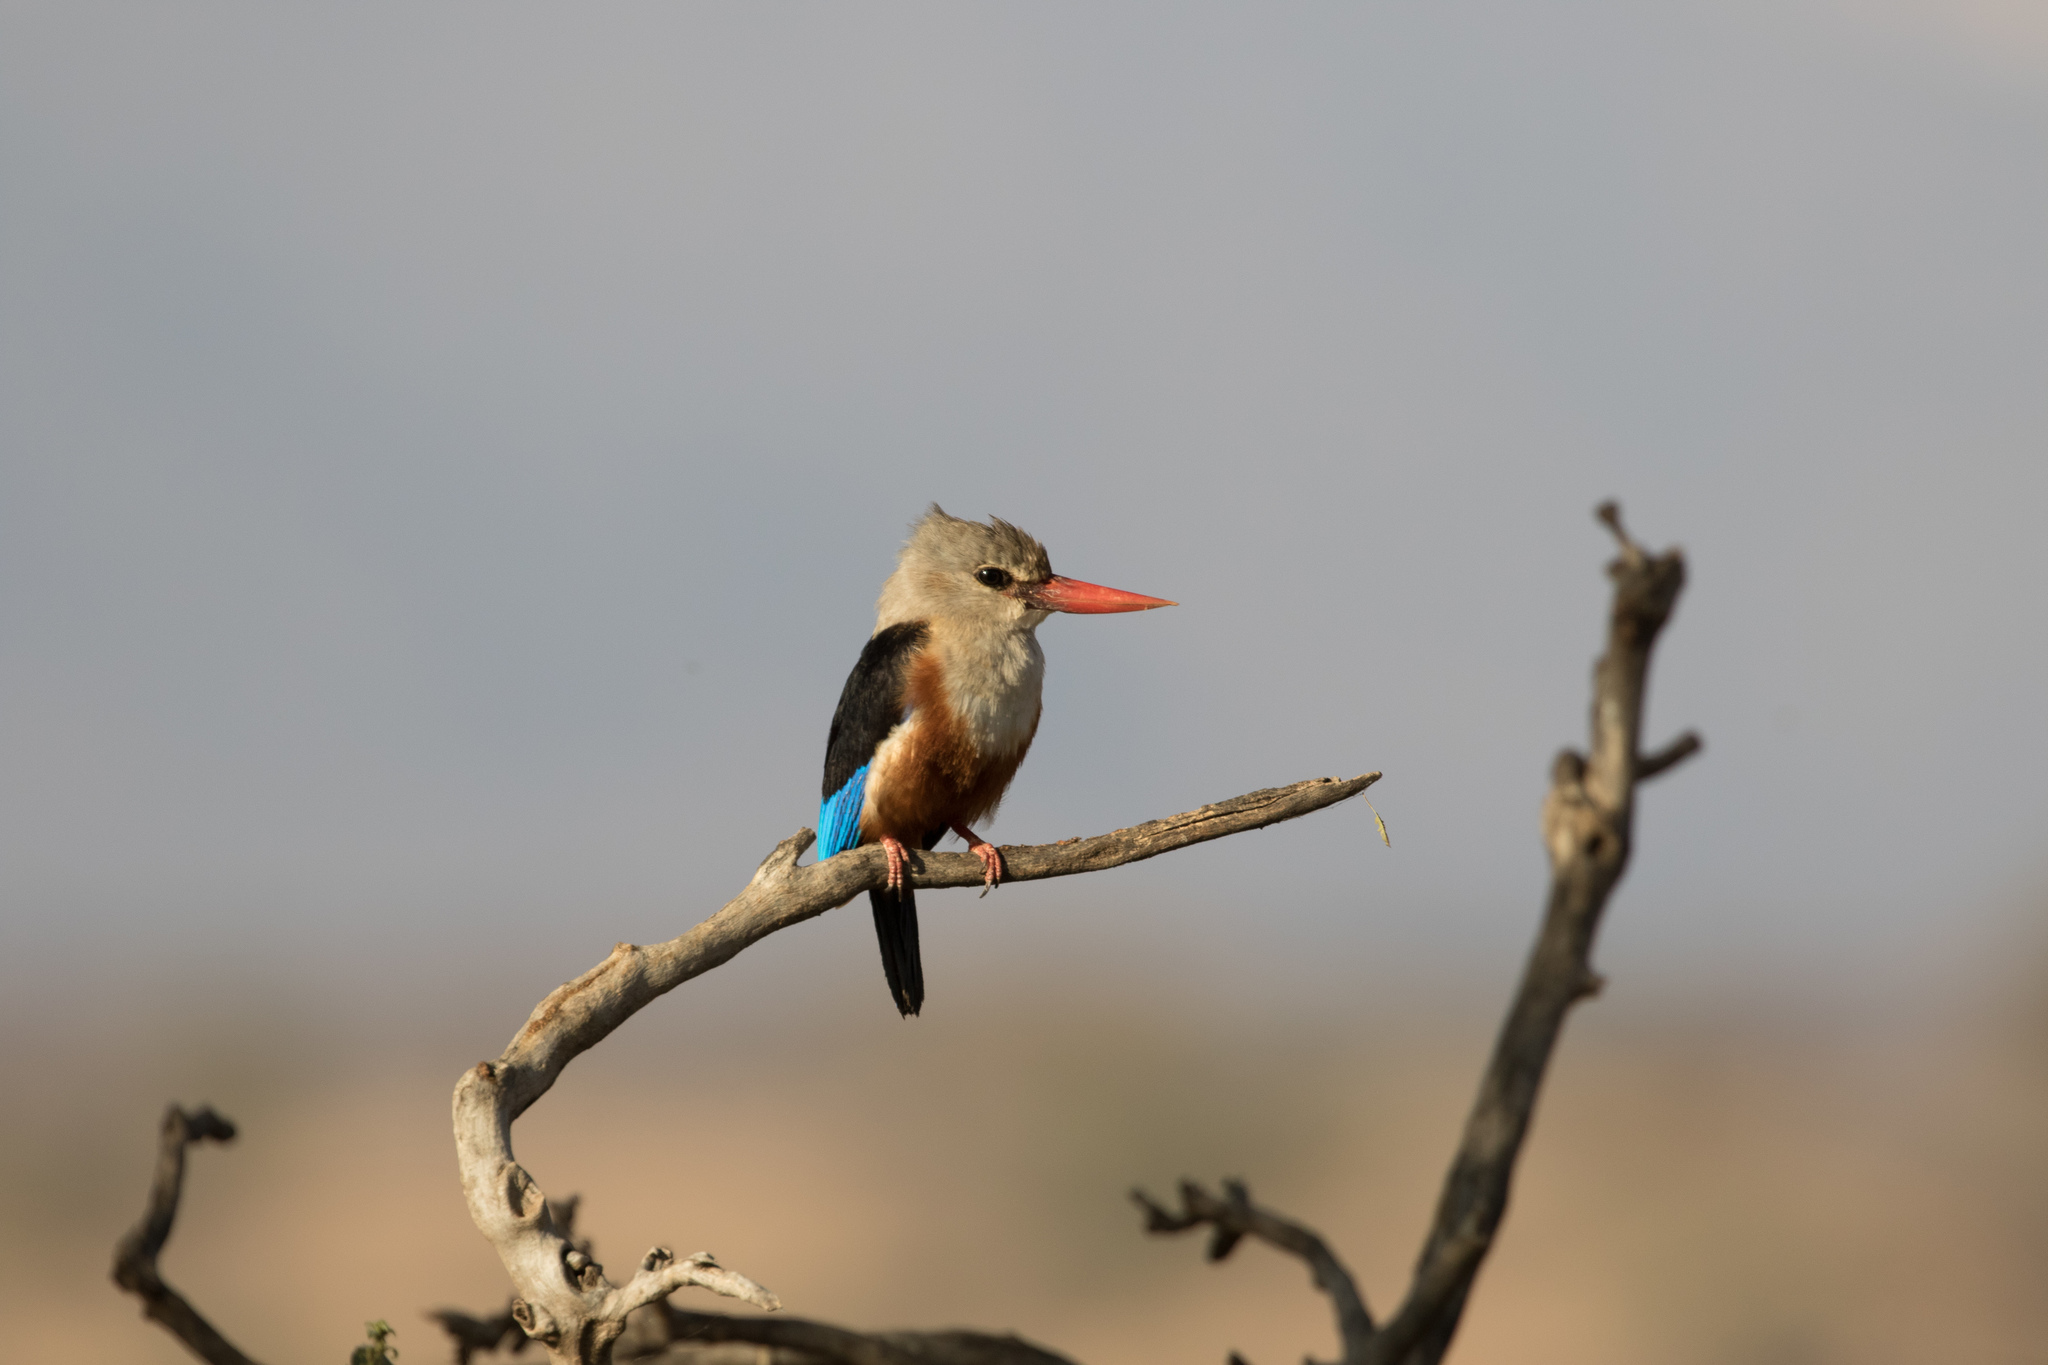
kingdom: Animalia
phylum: Chordata
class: Aves
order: Coraciiformes
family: Alcedinidae
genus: Halcyon
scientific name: Halcyon leucocephala
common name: Grey-headed kingfisher
